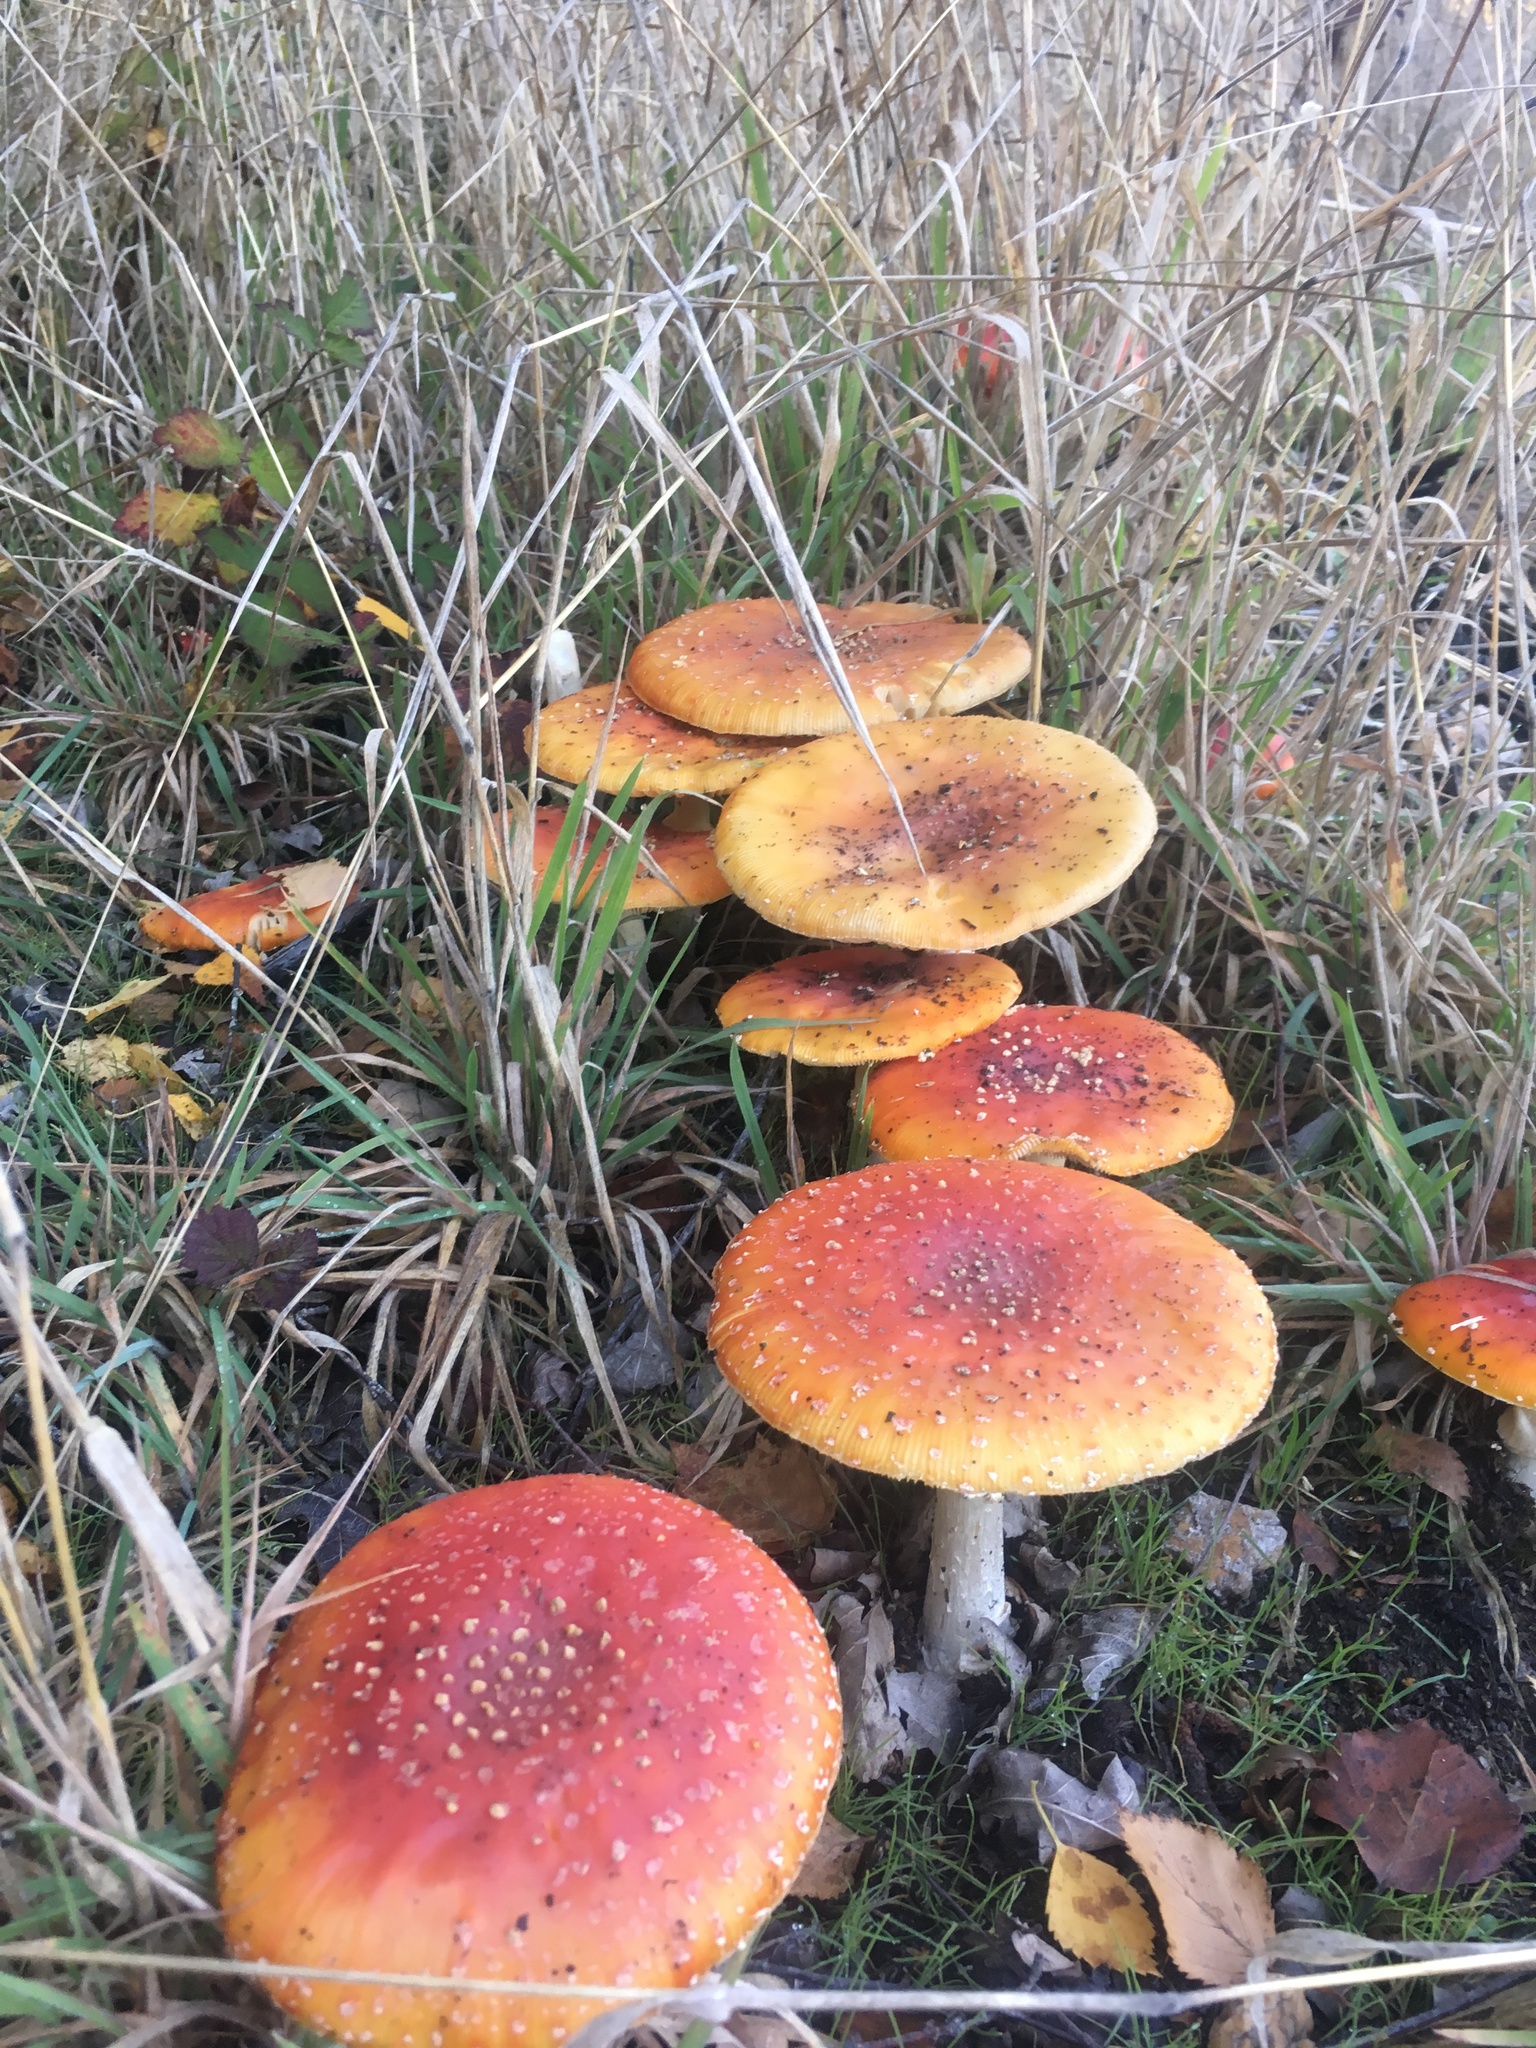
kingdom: Fungi
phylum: Basidiomycota
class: Agaricomycetes
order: Agaricales
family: Amanitaceae
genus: Amanita
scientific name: Amanita muscaria
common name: Fly agaric
